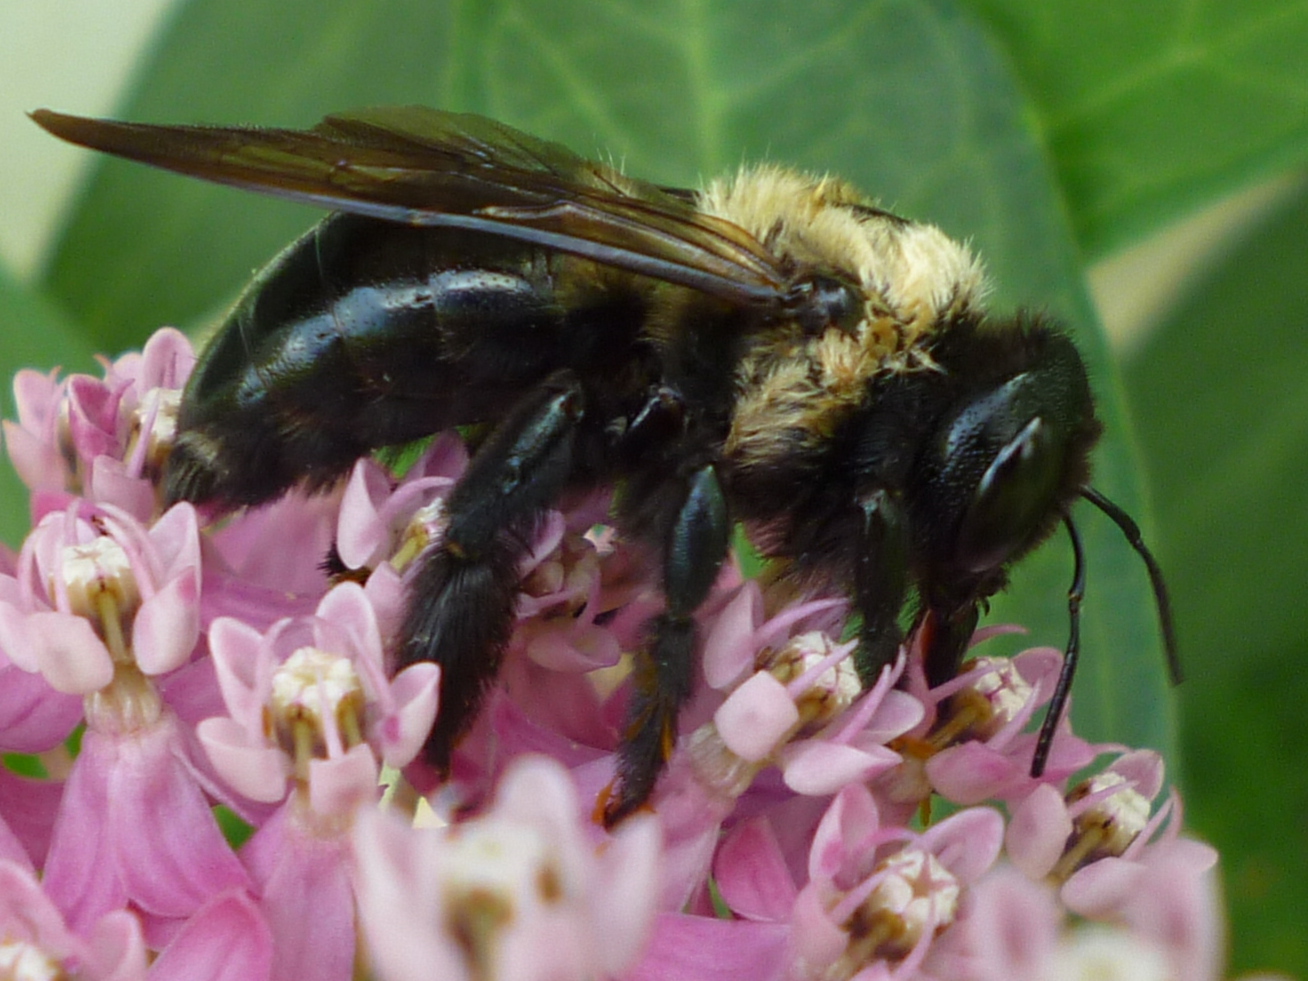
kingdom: Animalia
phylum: Arthropoda
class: Insecta
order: Hymenoptera
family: Apidae
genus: Xylocopa
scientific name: Xylocopa virginica
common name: Carpenter bee
